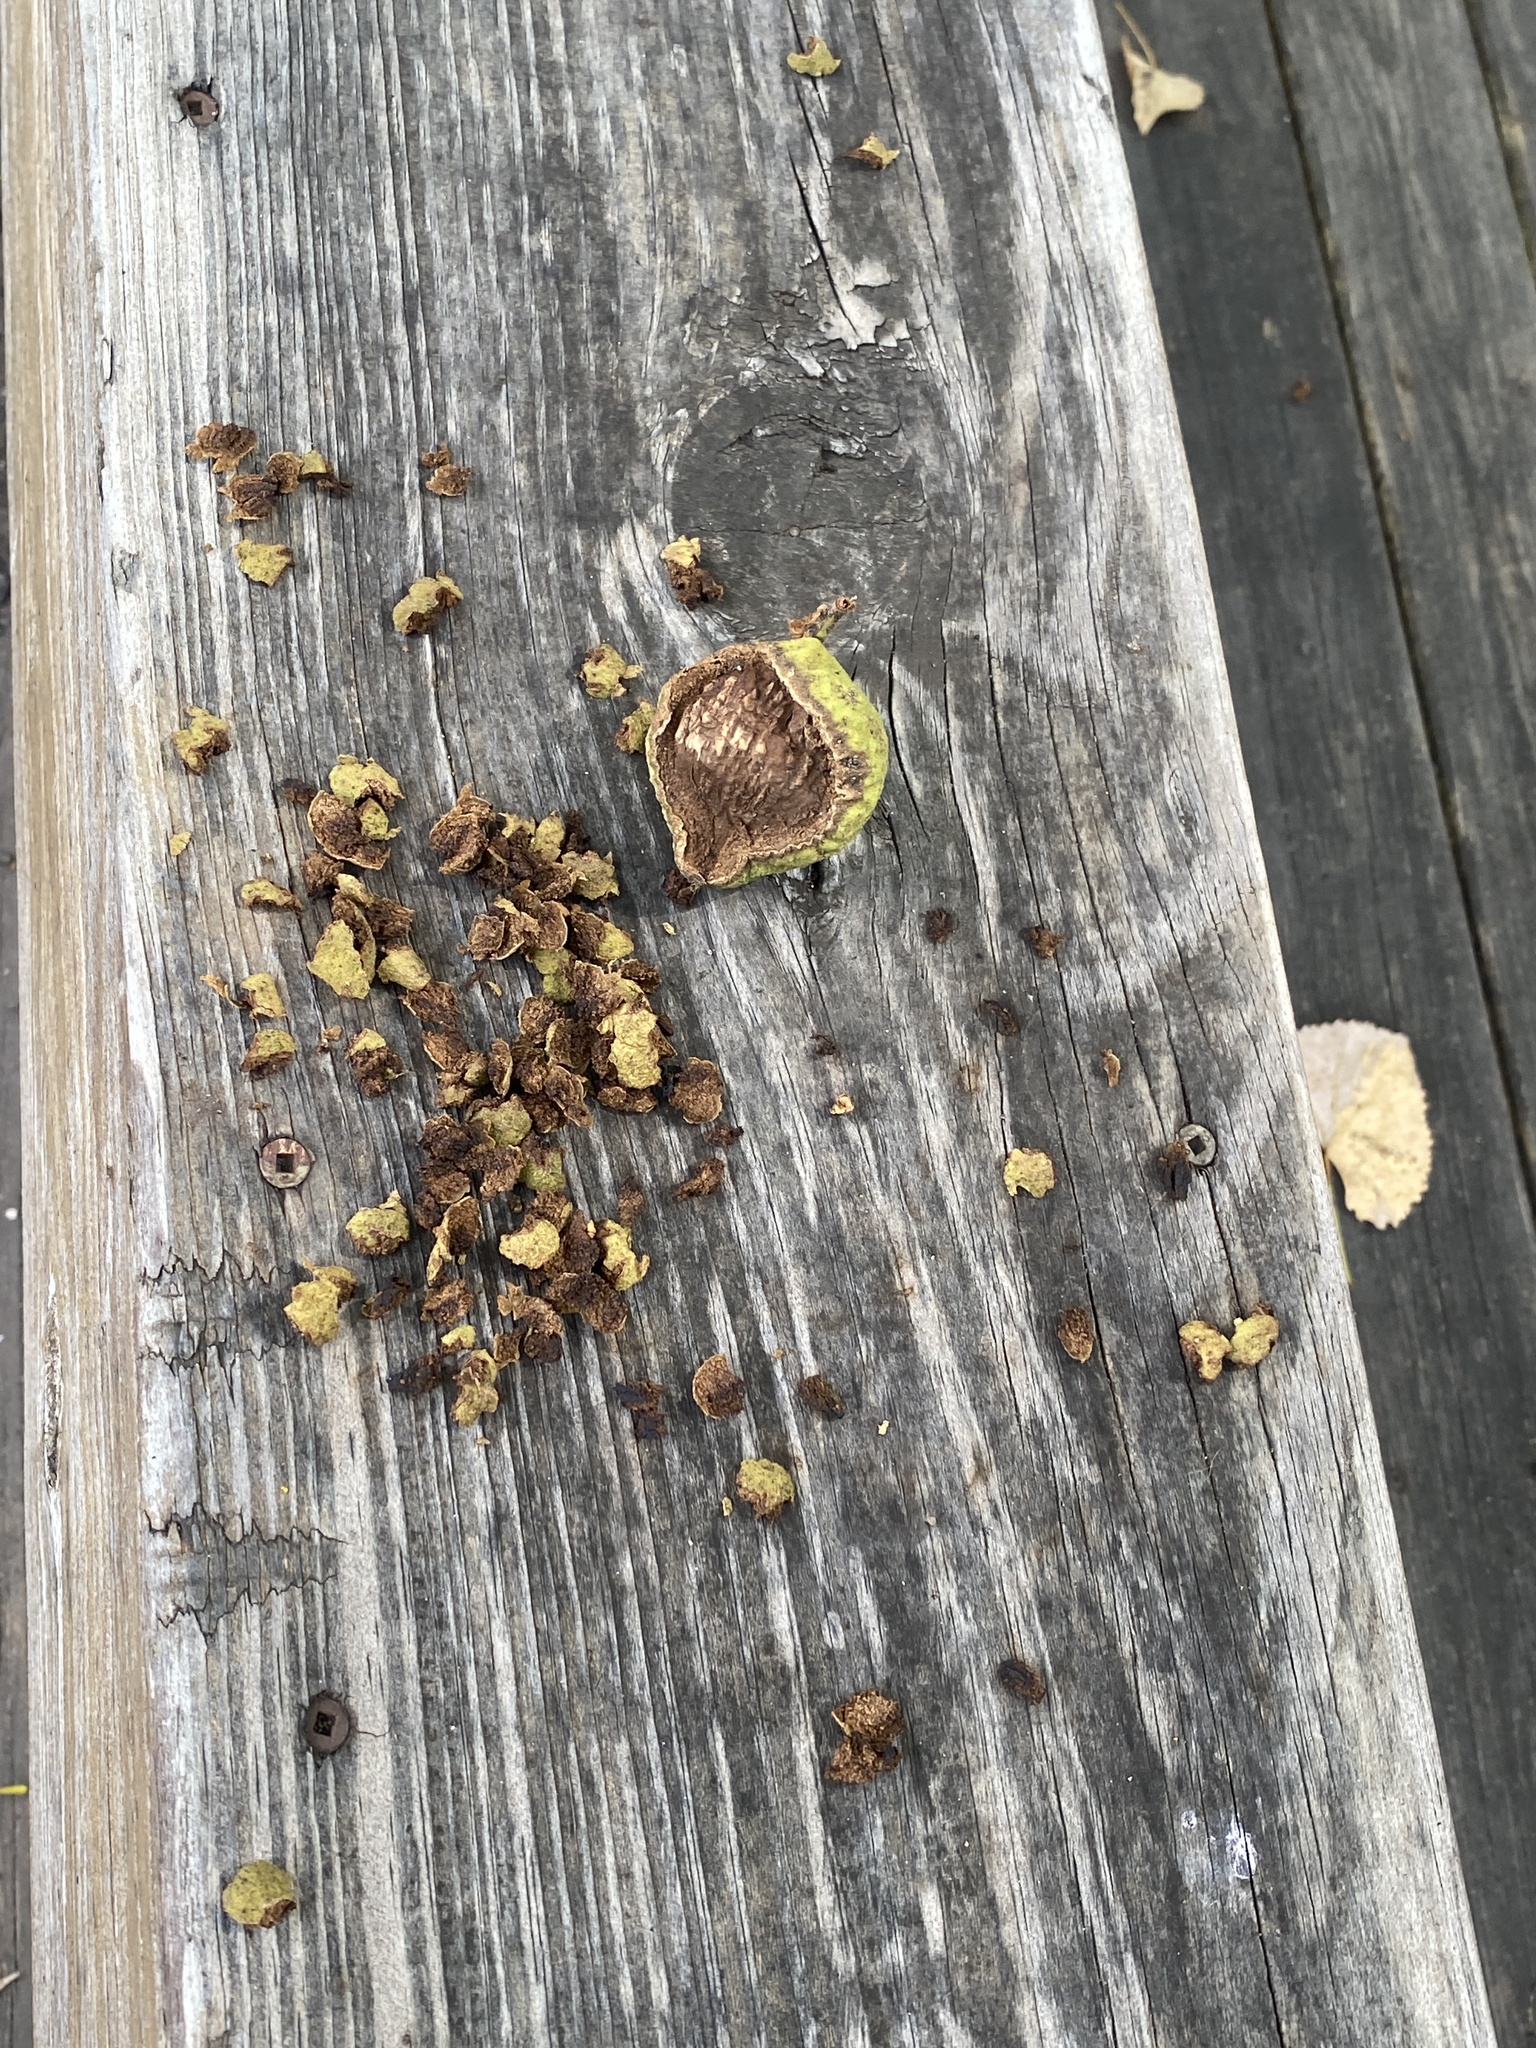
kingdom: Plantae
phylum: Tracheophyta
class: Magnoliopsida
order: Fagales
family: Juglandaceae
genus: Juglans
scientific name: Juglans nigra
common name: Black walnut
